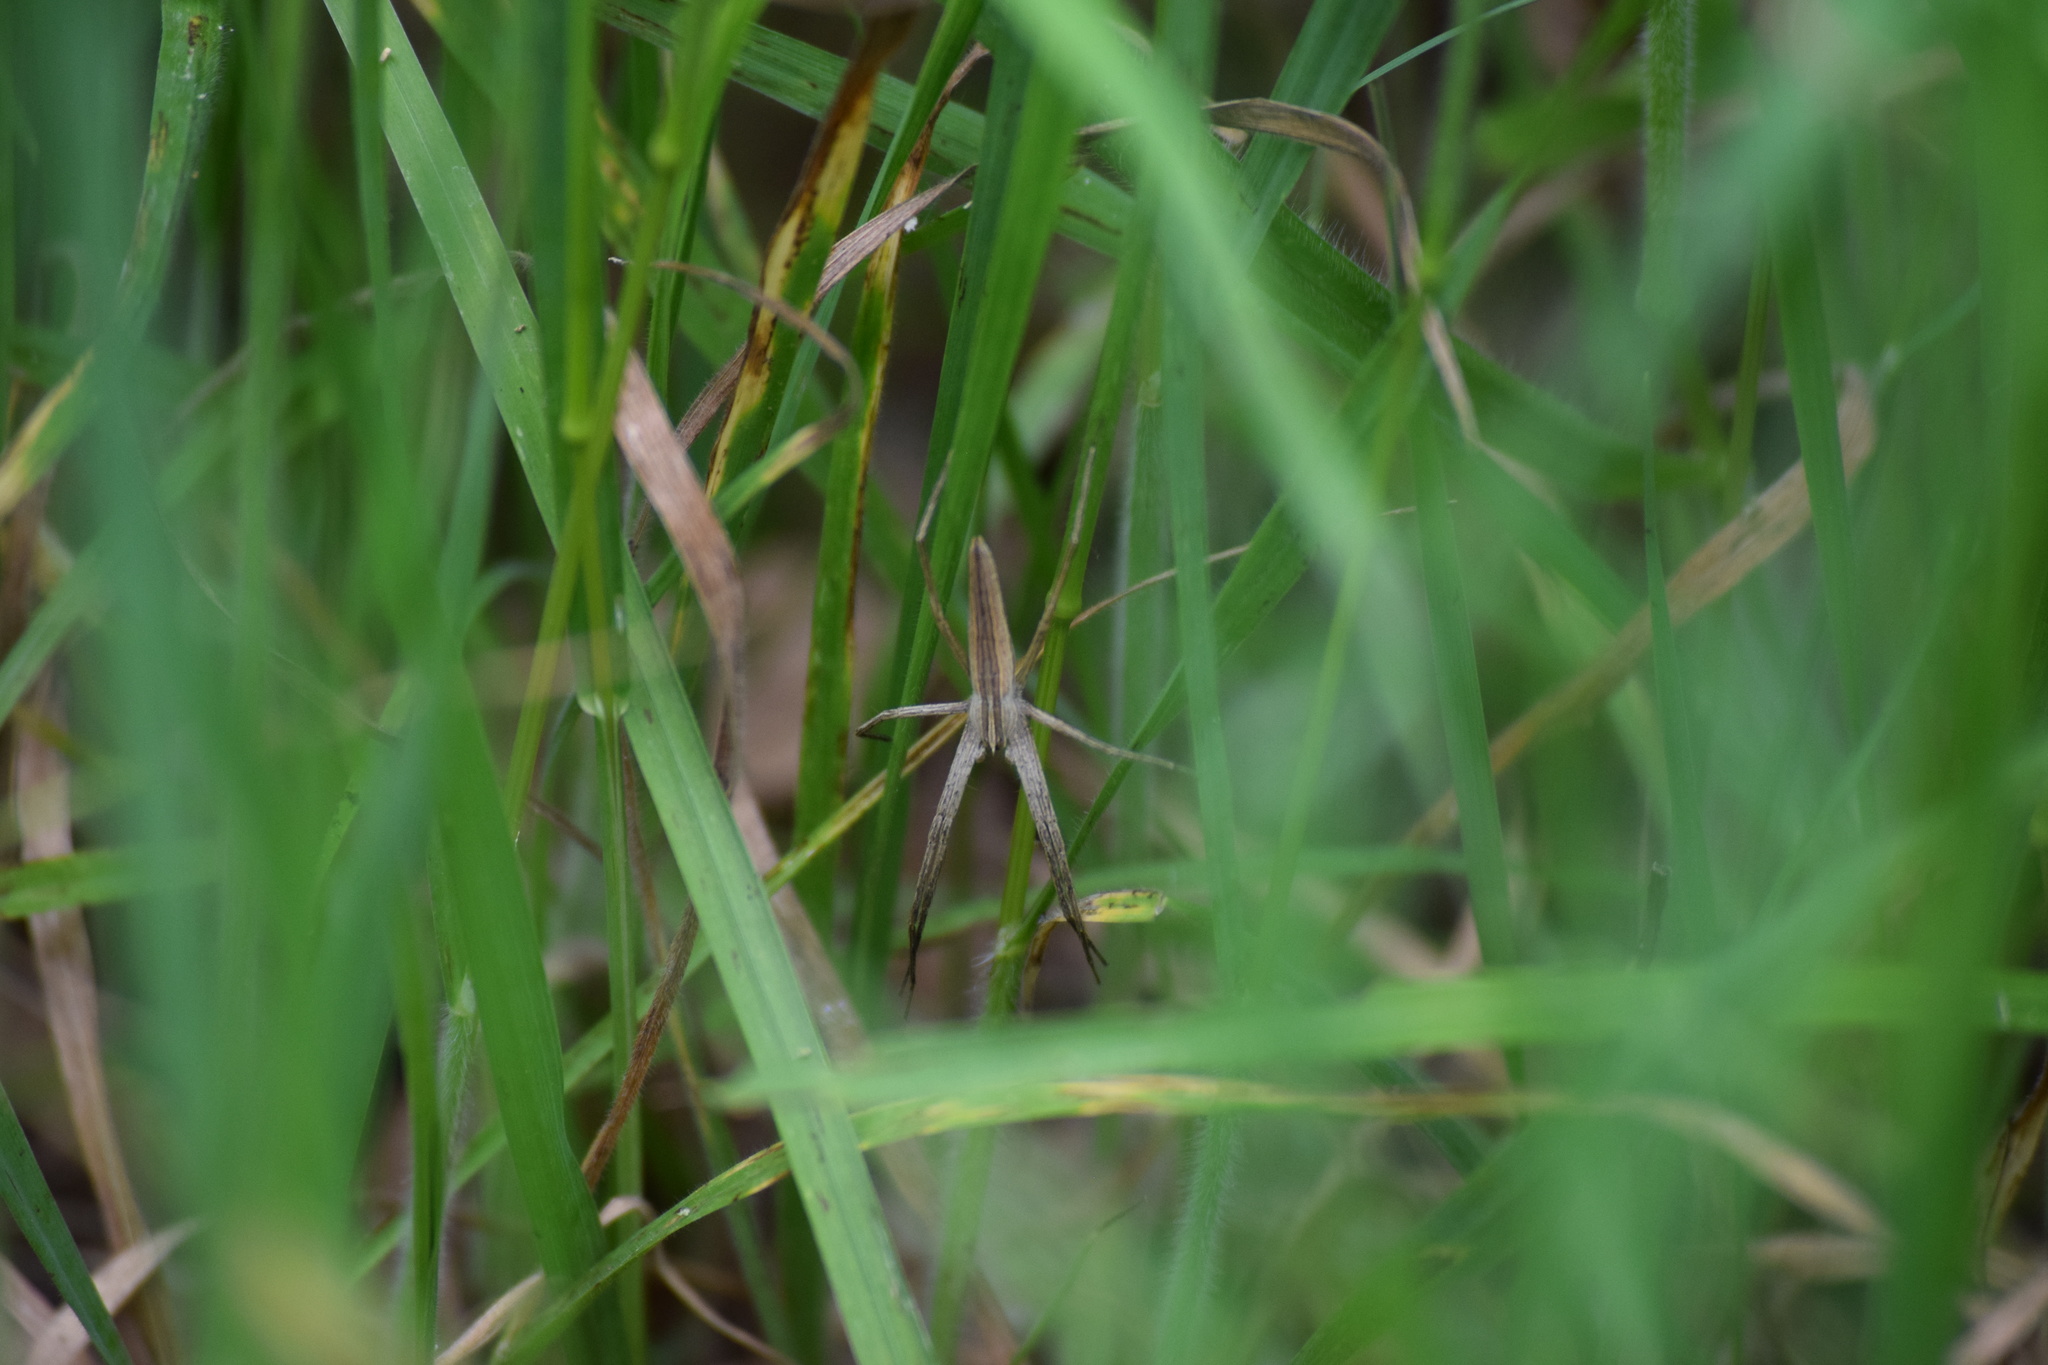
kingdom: Animalia
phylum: Arthropoda
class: Arachnida
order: Araneae
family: Pisauridae
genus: Pisaurina
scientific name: Pisaurina dubia
